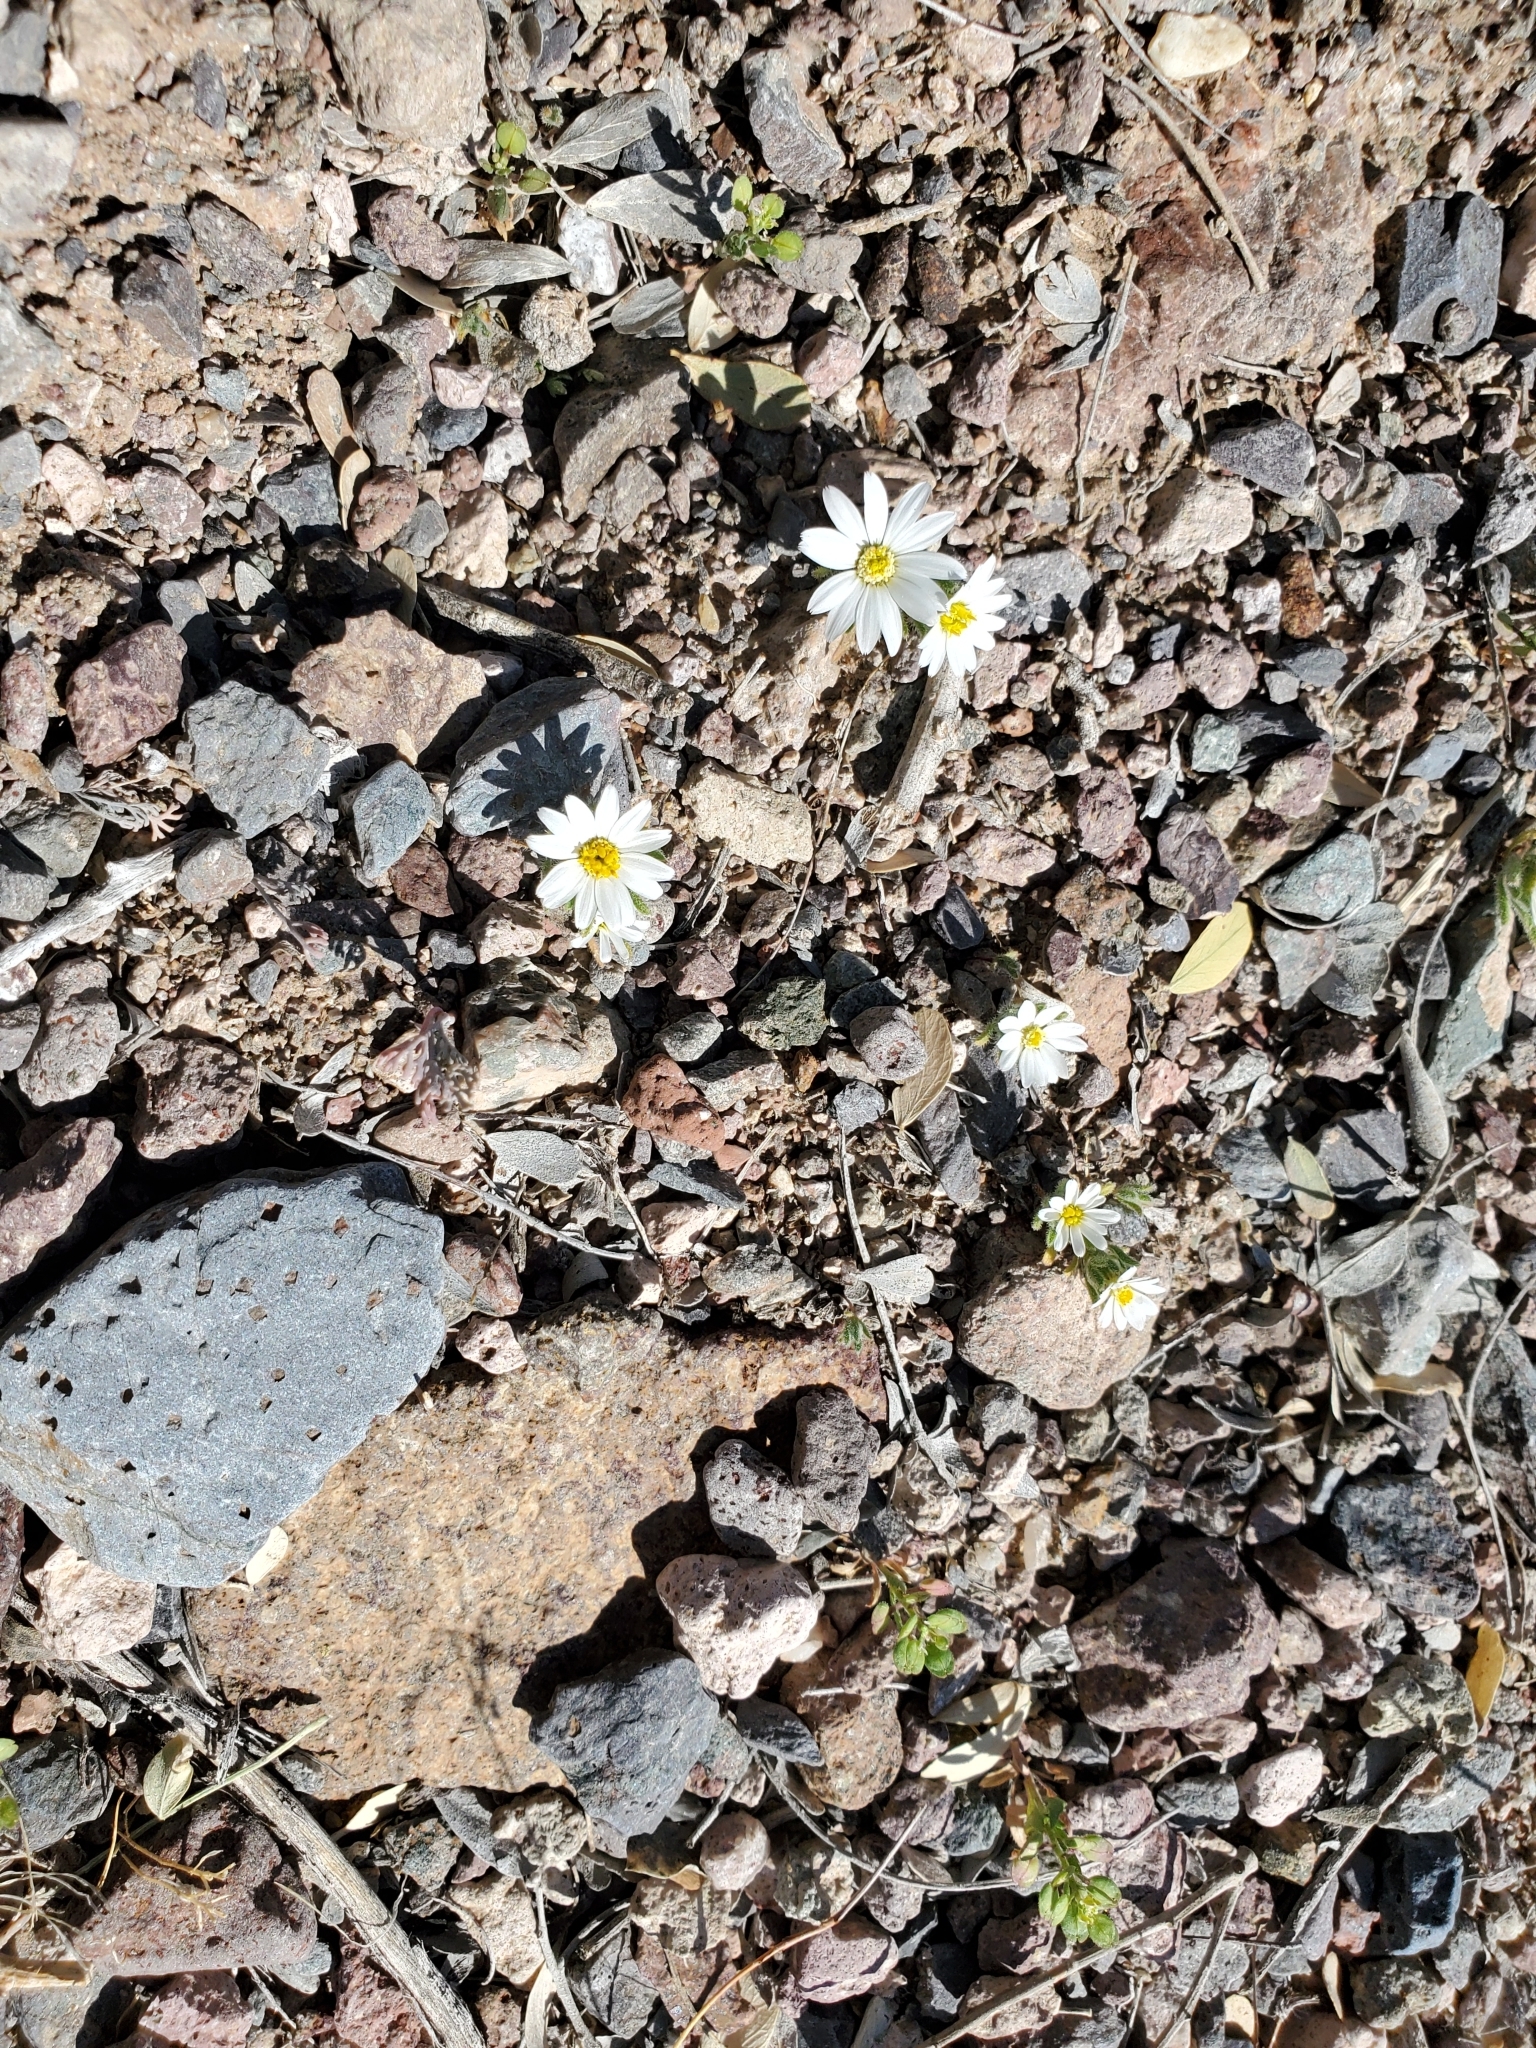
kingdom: Plantae
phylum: Tracheophyta
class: Magnoliopsida
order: Asterales
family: Asteraceae
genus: Monoptilon
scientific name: Monoptilon bellioides
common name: Bristly desertstar
